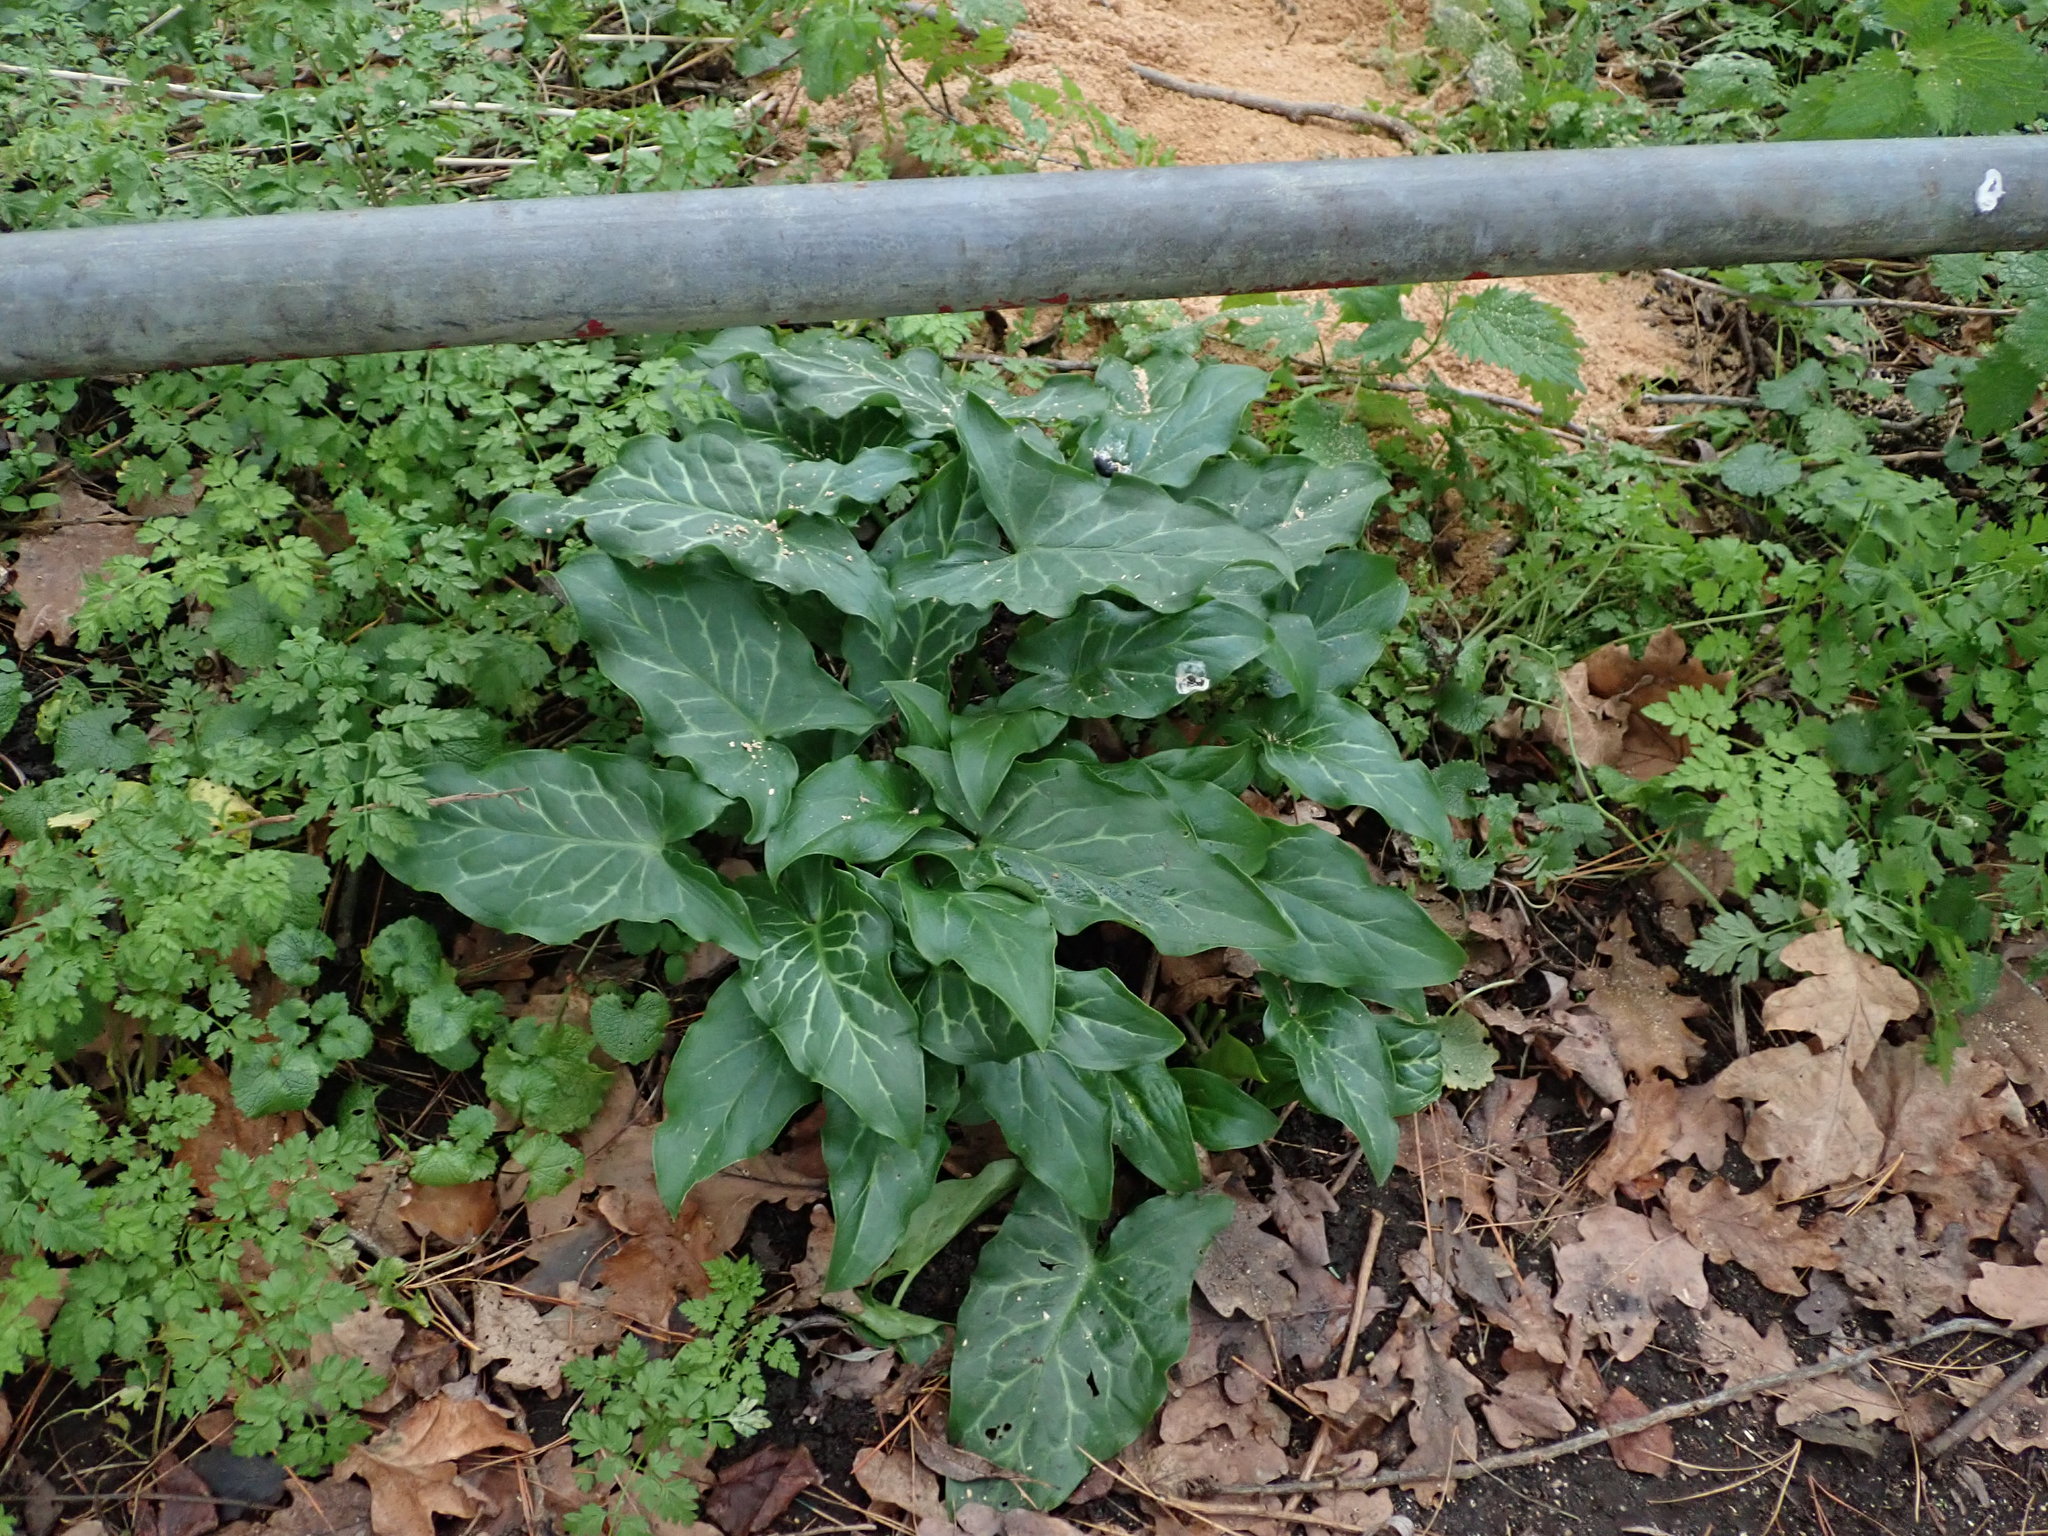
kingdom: Plantae
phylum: Tracheophyta
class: Liliopsida
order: Alismatales
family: Araceae
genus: Arum
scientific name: Arum italicum
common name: Italian lords-and-ladies
